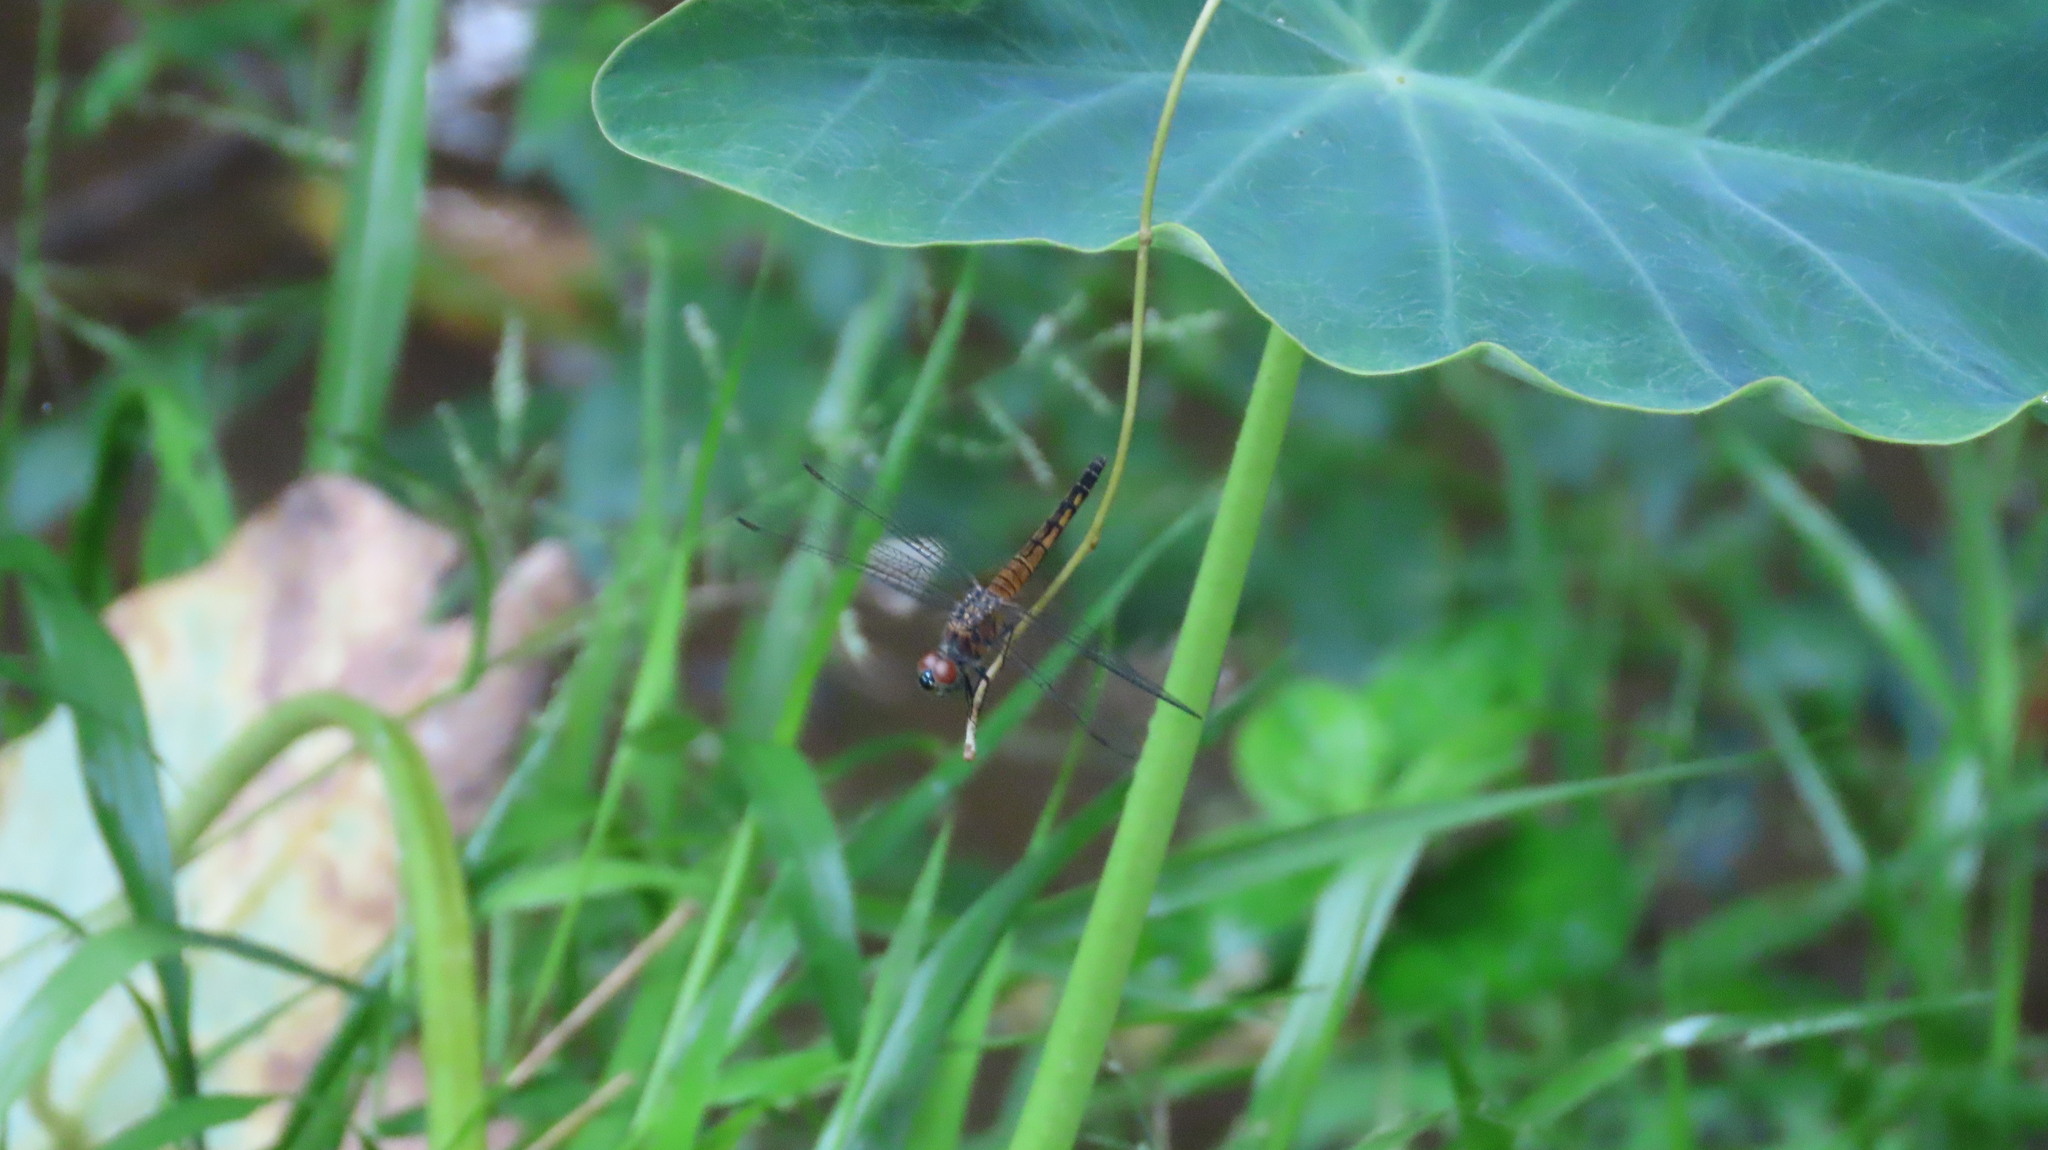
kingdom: Animalia
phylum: Arthropoda
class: Insecta
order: Odonata
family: Libellulidae
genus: Brachydiplax
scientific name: Brachydiplax chalybea
